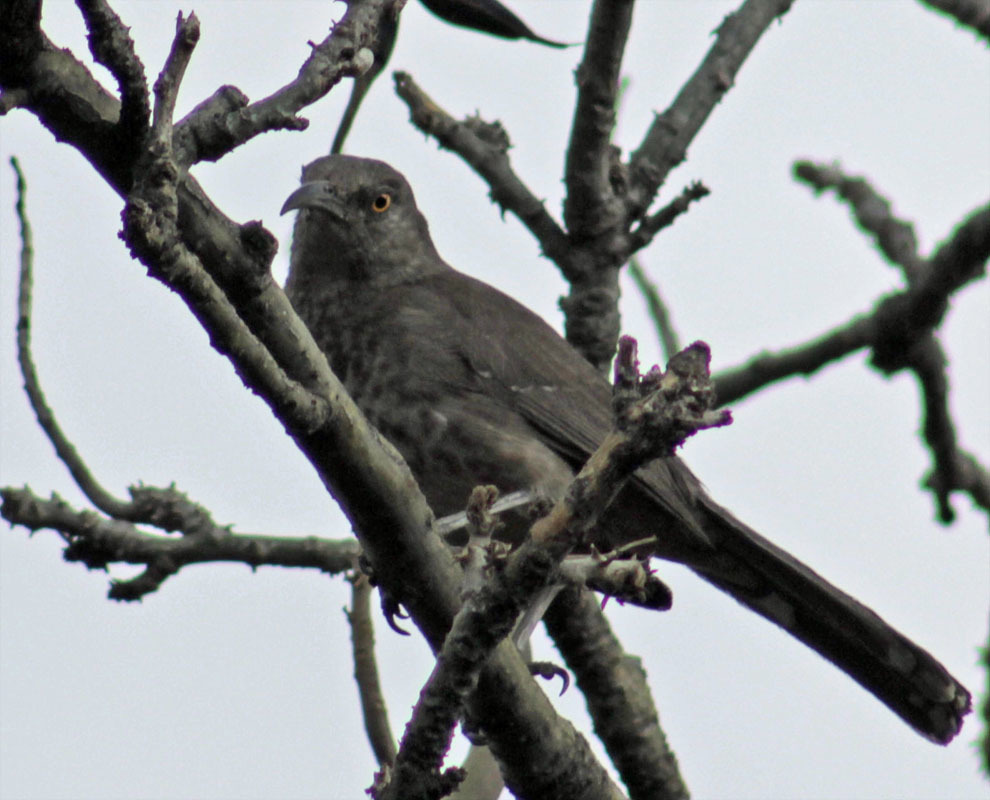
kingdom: Animalia
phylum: Chordata
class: Aves
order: Passeriformes
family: Mimidae
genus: Toxostoma
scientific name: Toxostoma curvirostre
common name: Curve-billed thrasher
